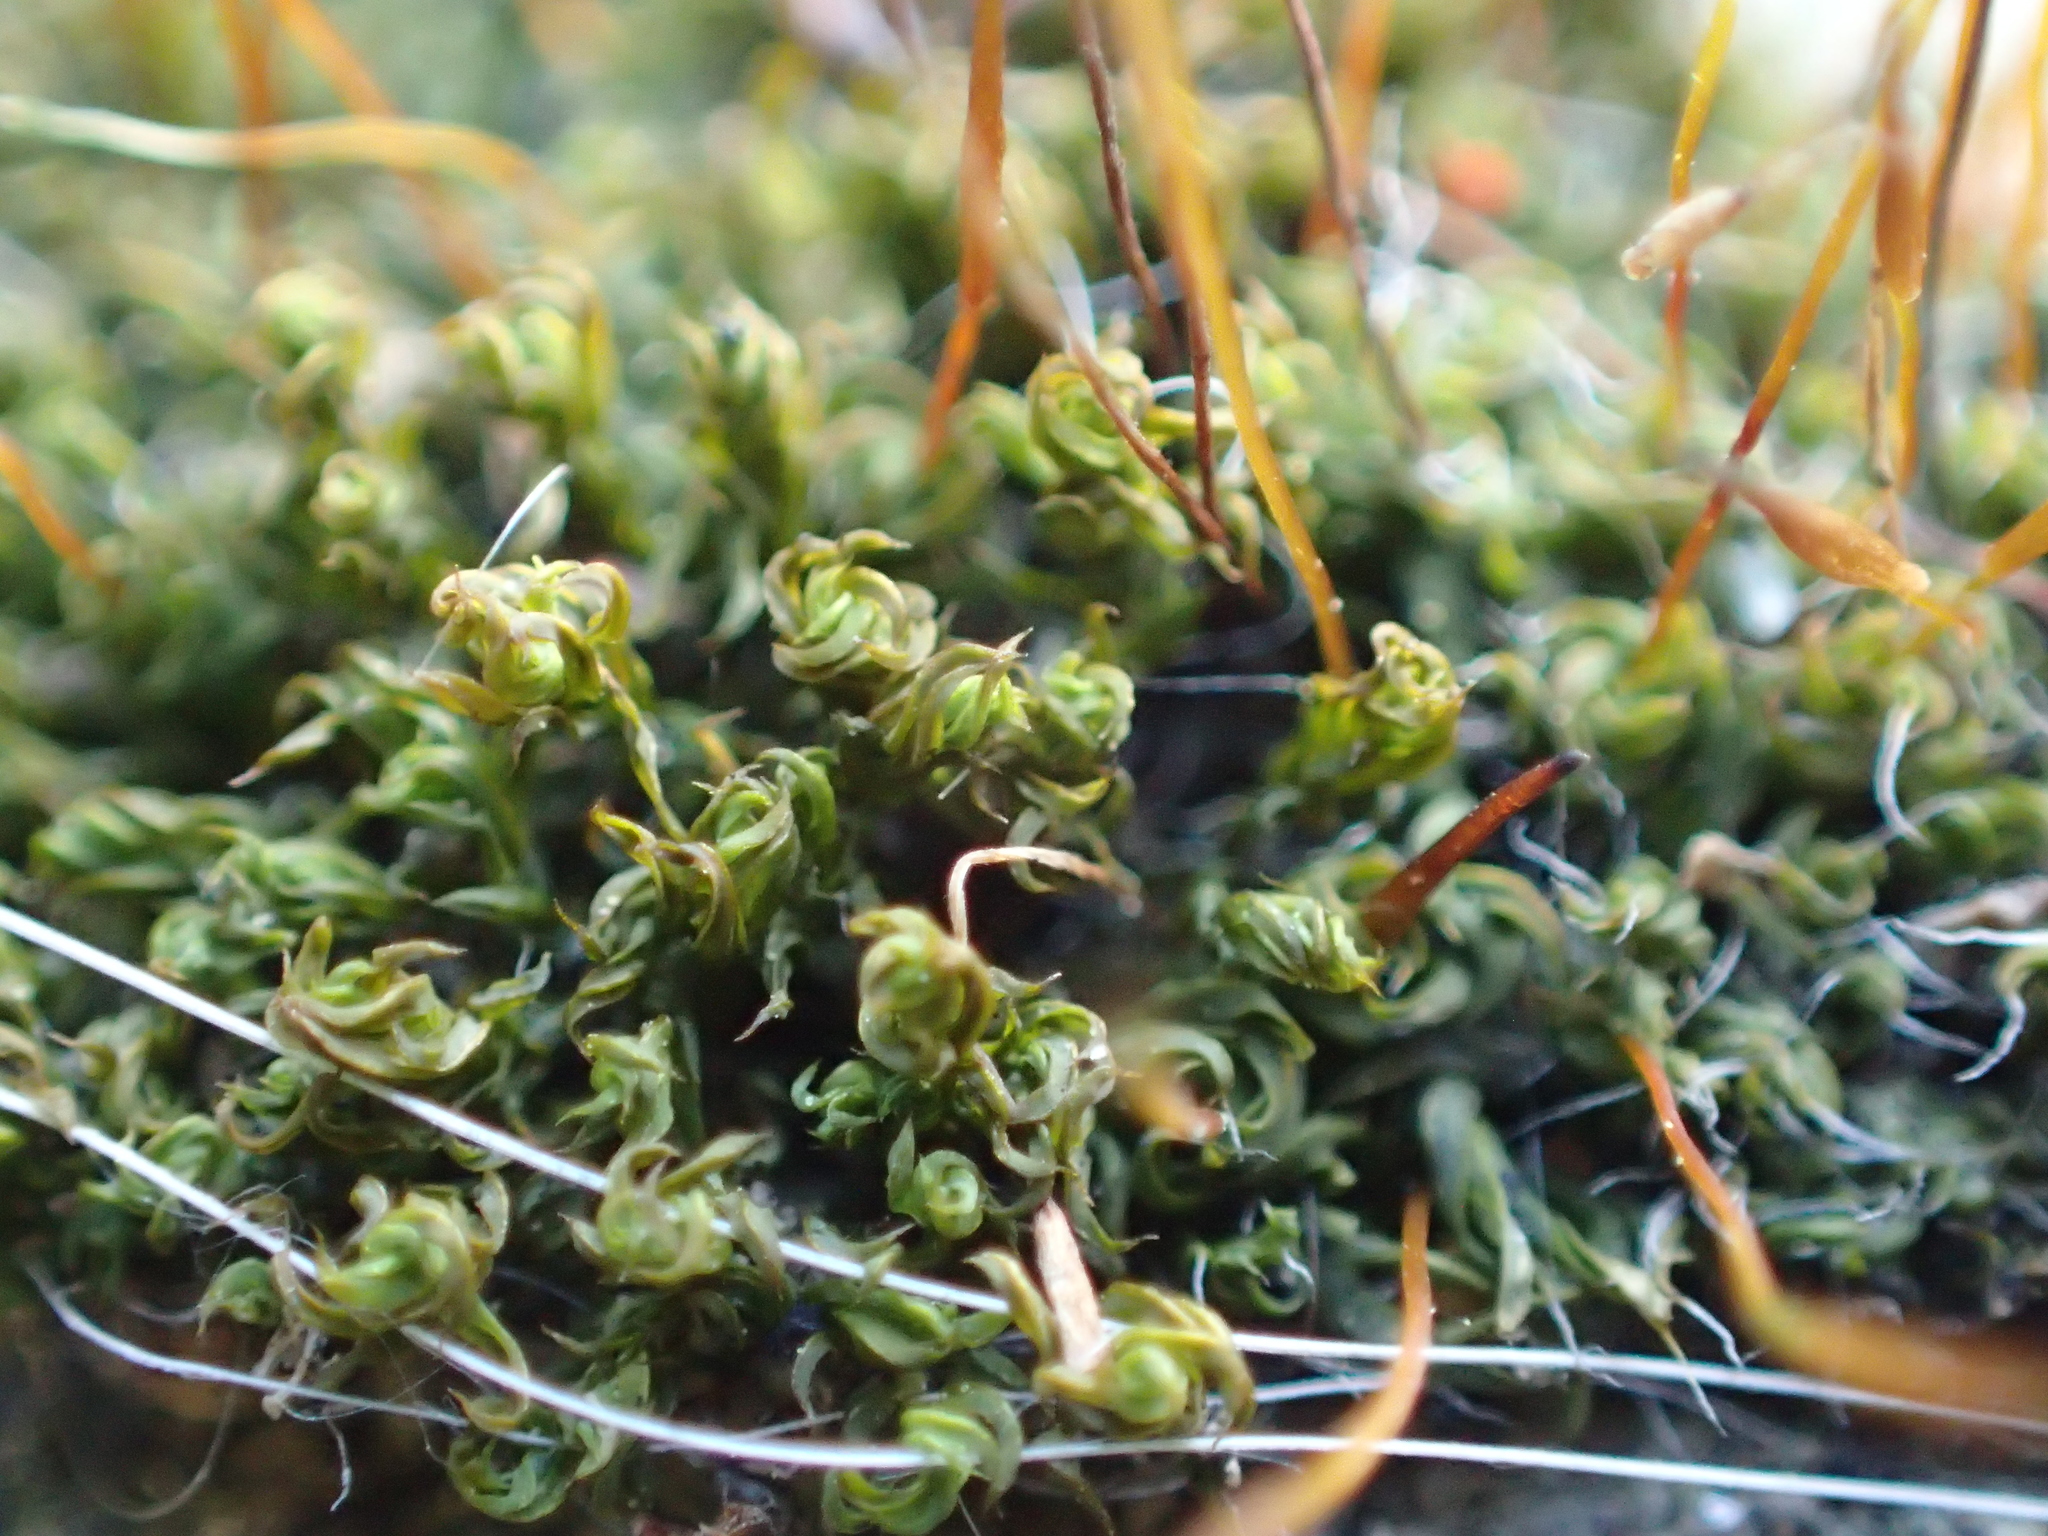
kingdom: Plantae
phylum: Bryophyta
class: Bryopsida
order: Pottiales
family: Pottiaceae
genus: Tortula
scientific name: Tortula muralis
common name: Wall screw-moss
